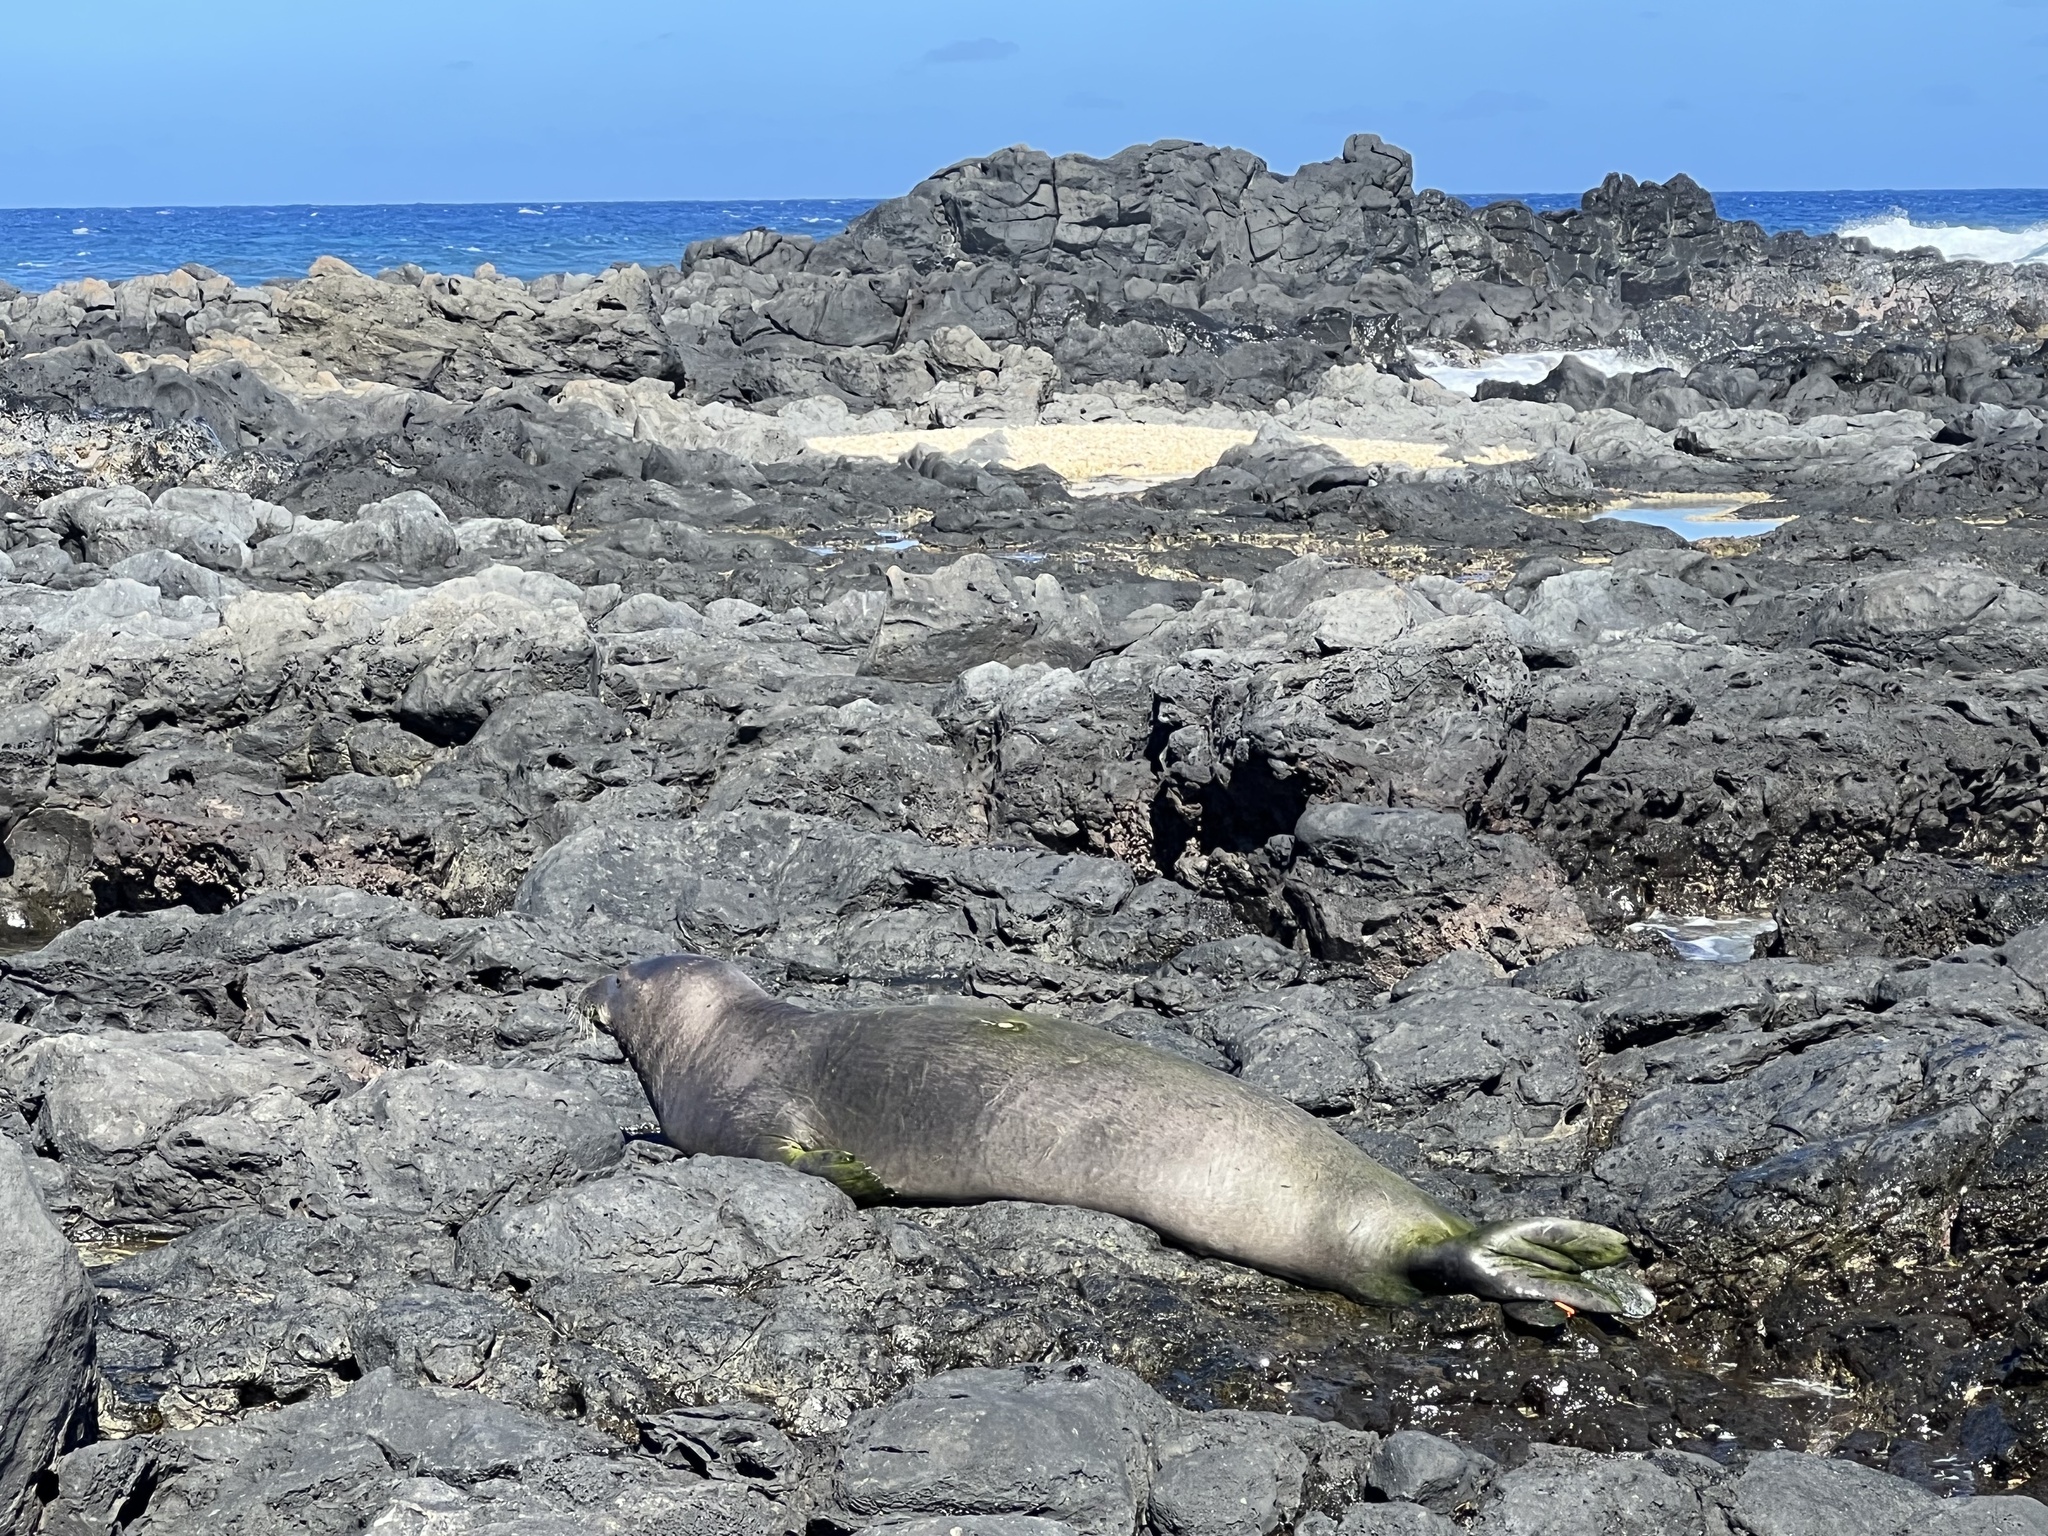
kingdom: Animalia
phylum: Chordata
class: Mammalia
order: Carnivora
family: Phocidae
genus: Neomonachus
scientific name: Neomonachus schauinslandi
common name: Hawaiian monk seal
